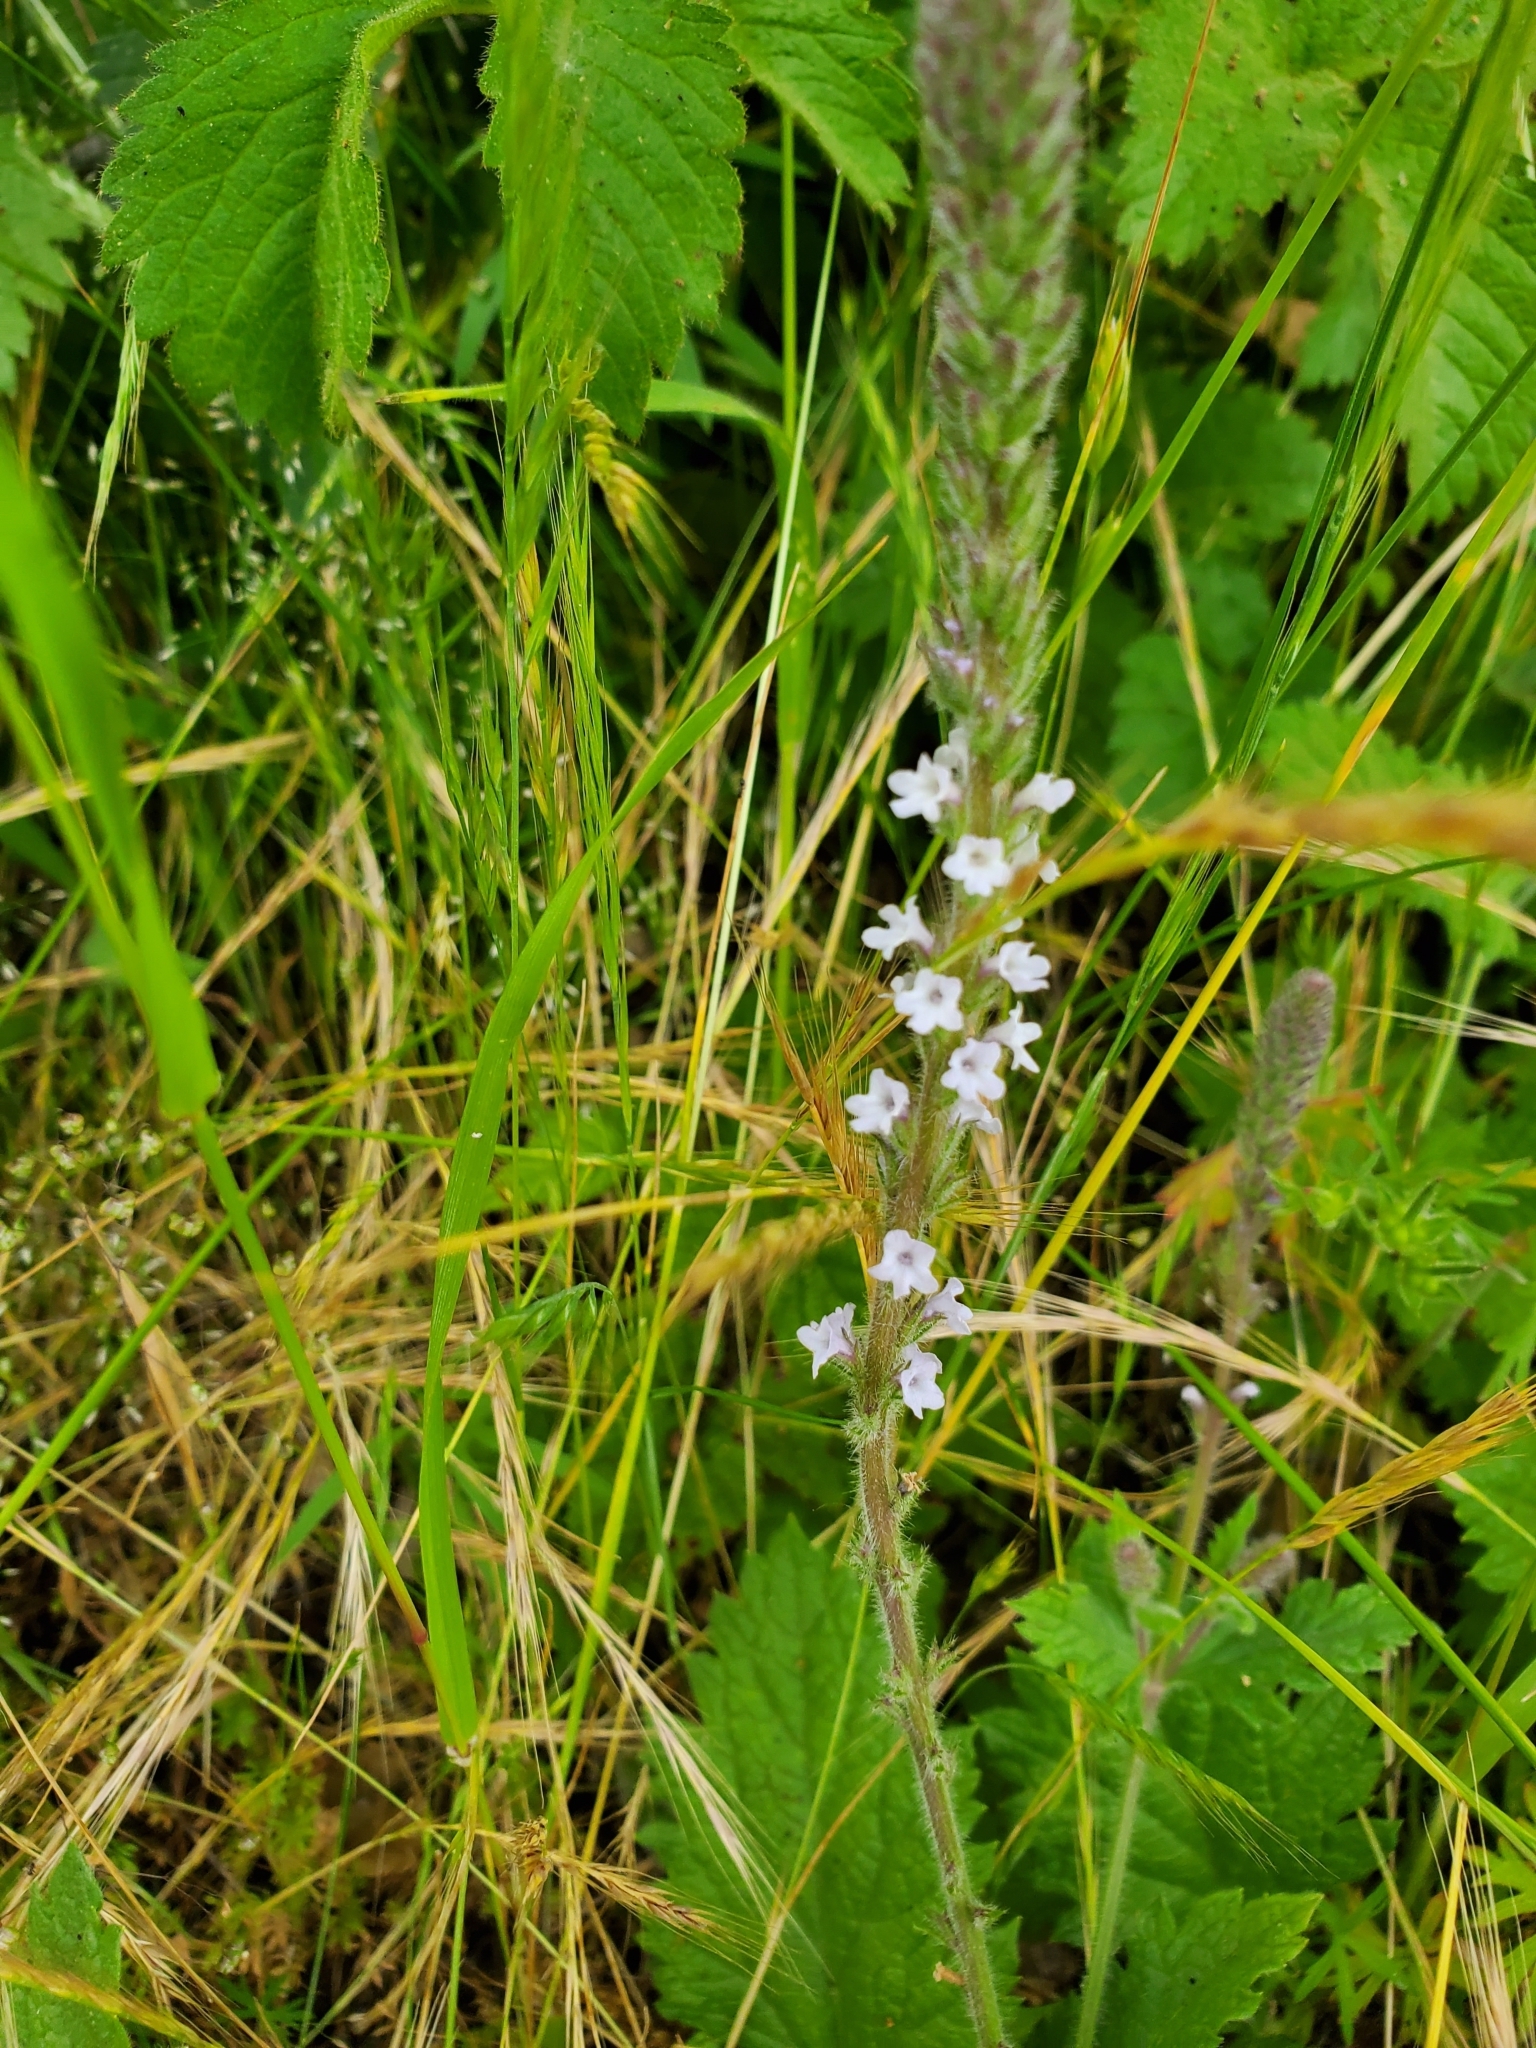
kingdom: Plantae
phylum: Tracheophyta
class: Magnoliopsida
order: Lamiales
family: Verbenaceae
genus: Verbena
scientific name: Verbena lasiostachys
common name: Vervain
